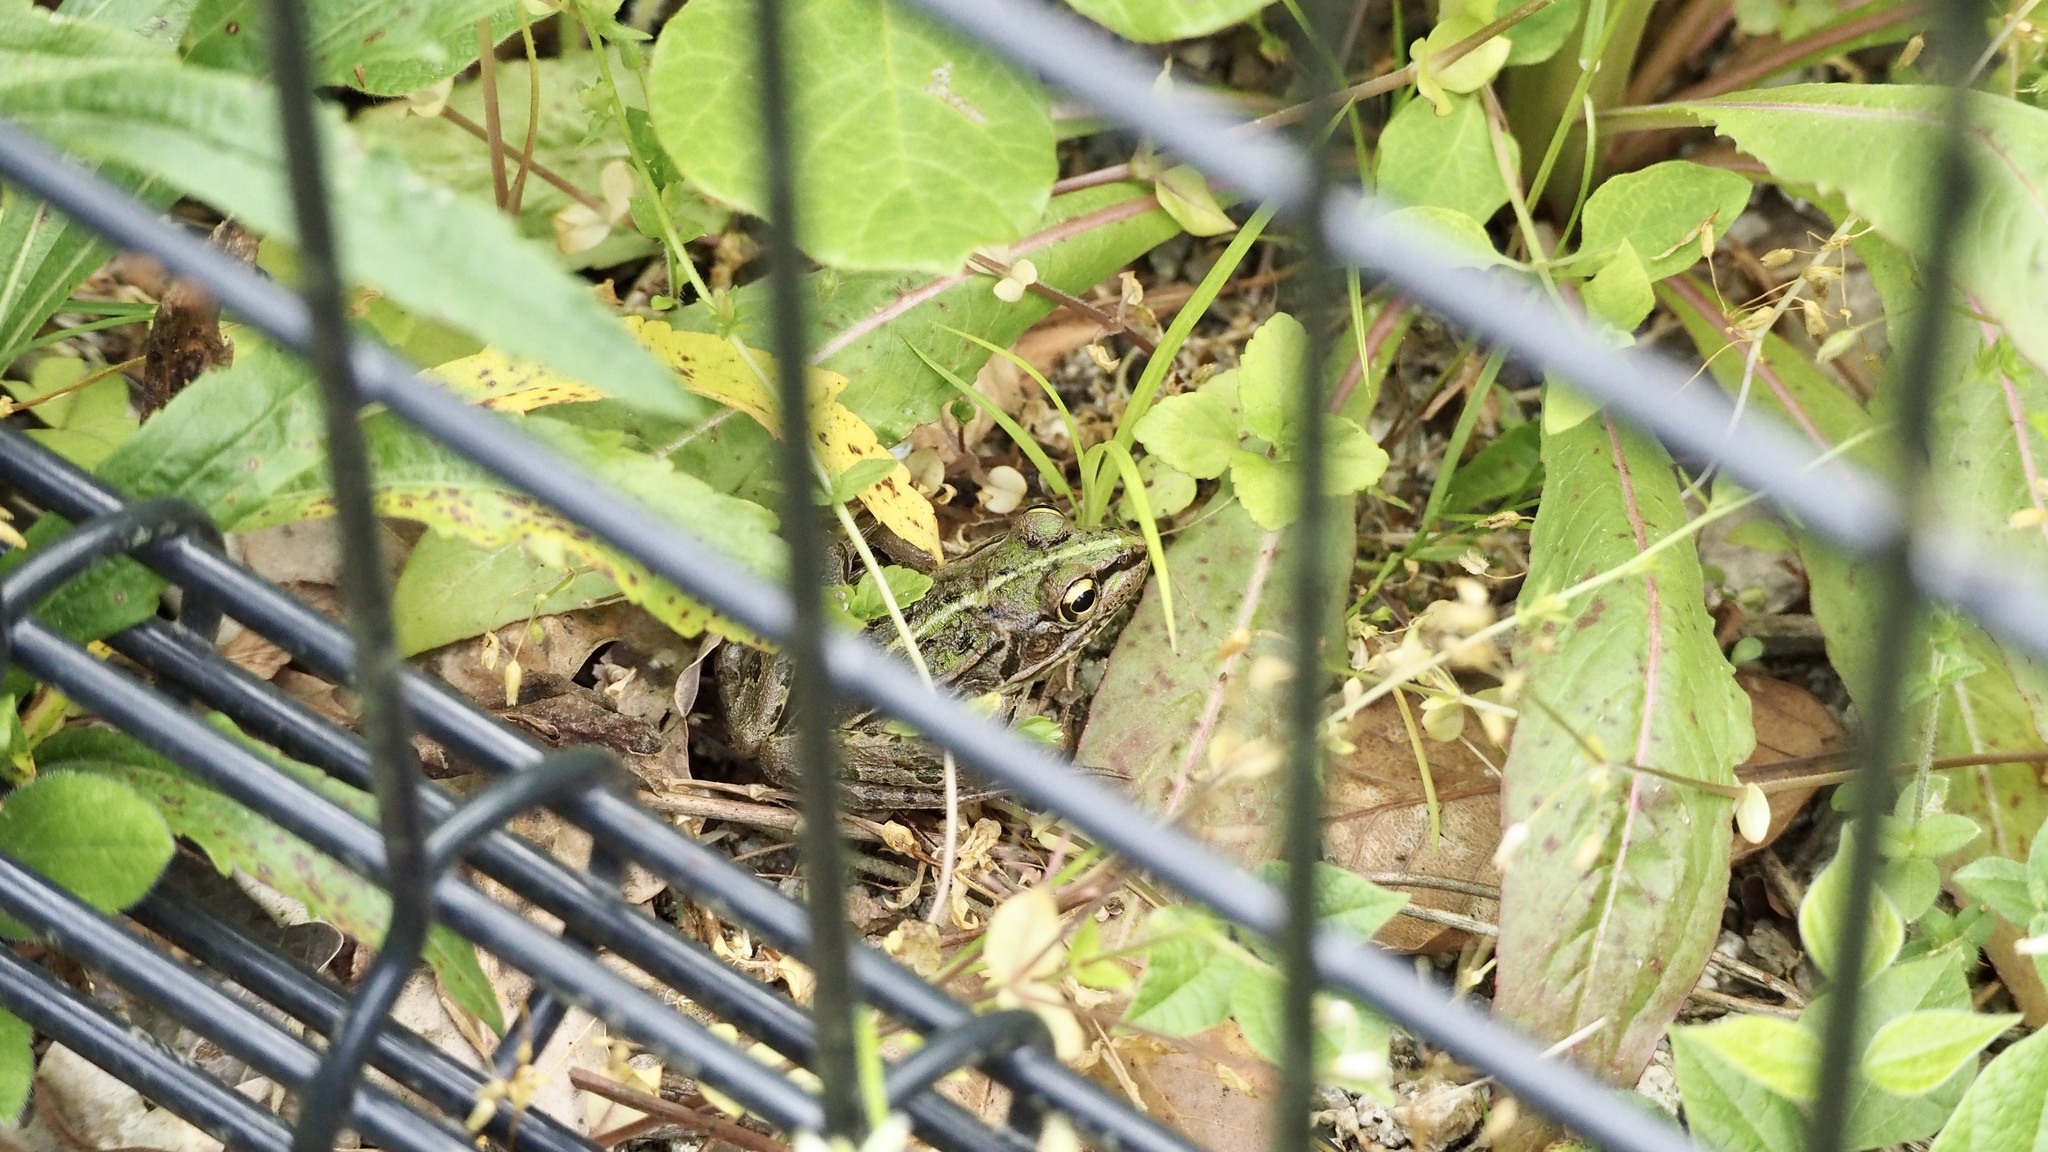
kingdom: Animalia
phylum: Chordata
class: Amphibia
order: Anura
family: Ranidae
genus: Pelophylax
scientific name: Pelophylax nigromaculatus
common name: Black-spotted pond frog
